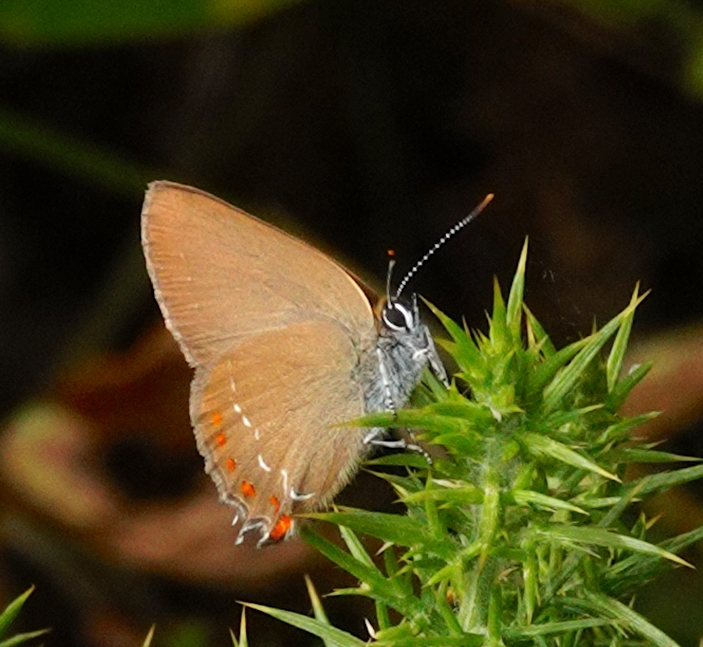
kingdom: Animalia
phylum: Arthropoda
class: Insecta
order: Lepidoptera
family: Lycaenidae
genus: Fixsenia
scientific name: Fixsenia esculi
